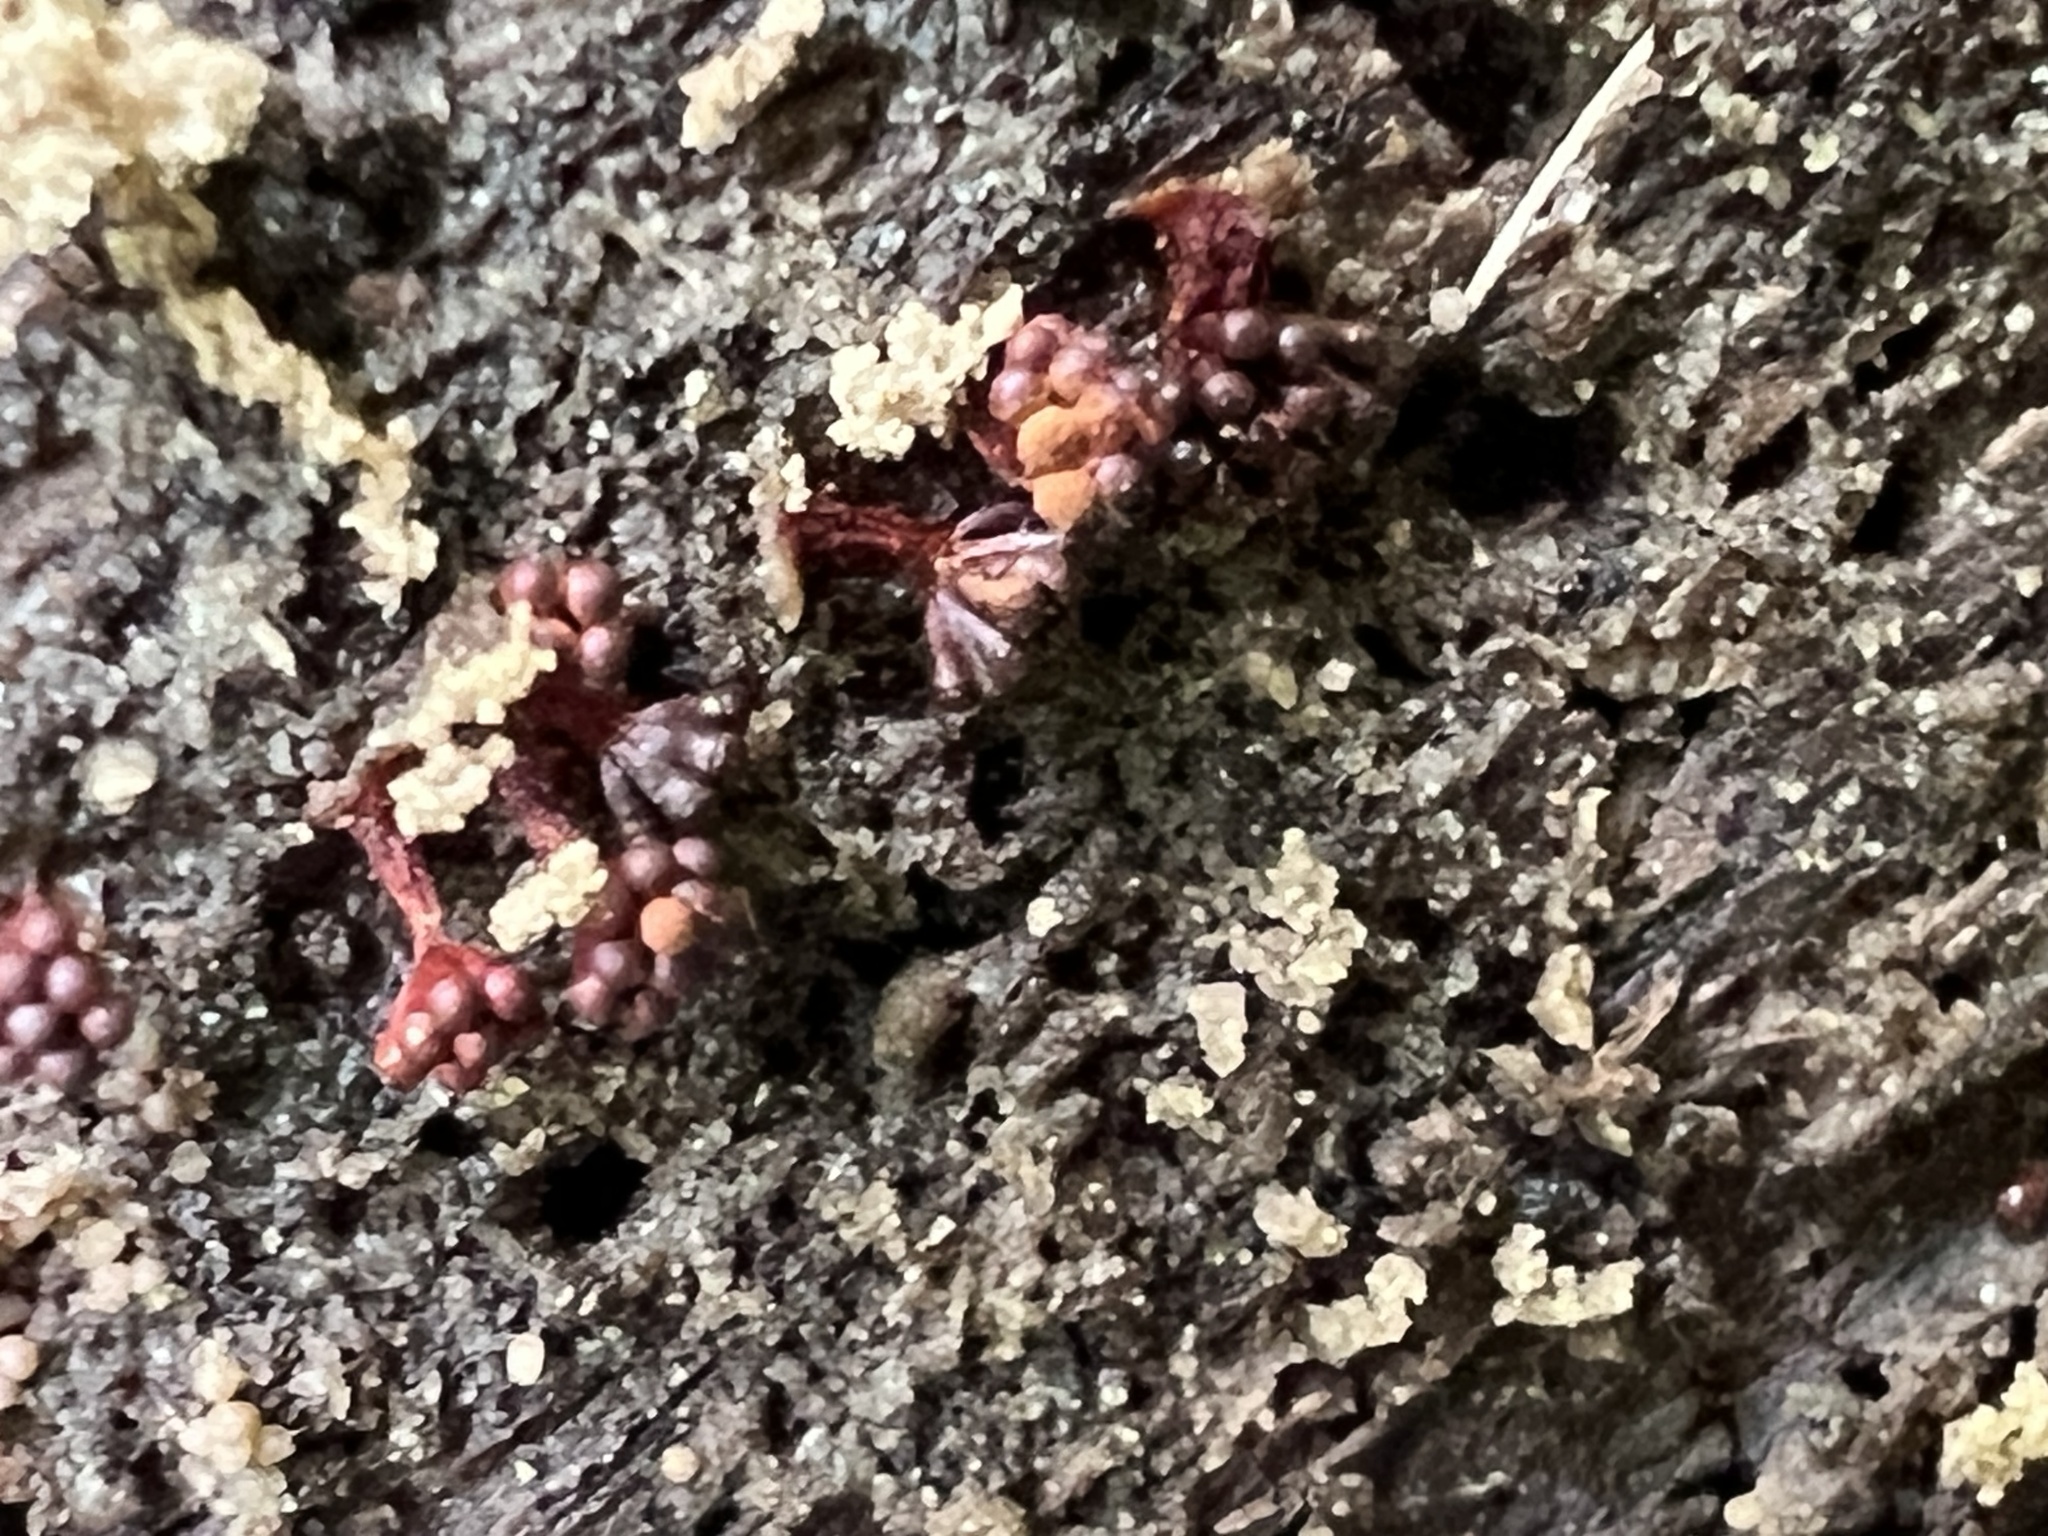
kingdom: Protozoa
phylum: Mycetozoa
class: Myxomycetes
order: Trichiales
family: Trichiaceae
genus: Metatrichia
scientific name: Metatrichia vesparia
